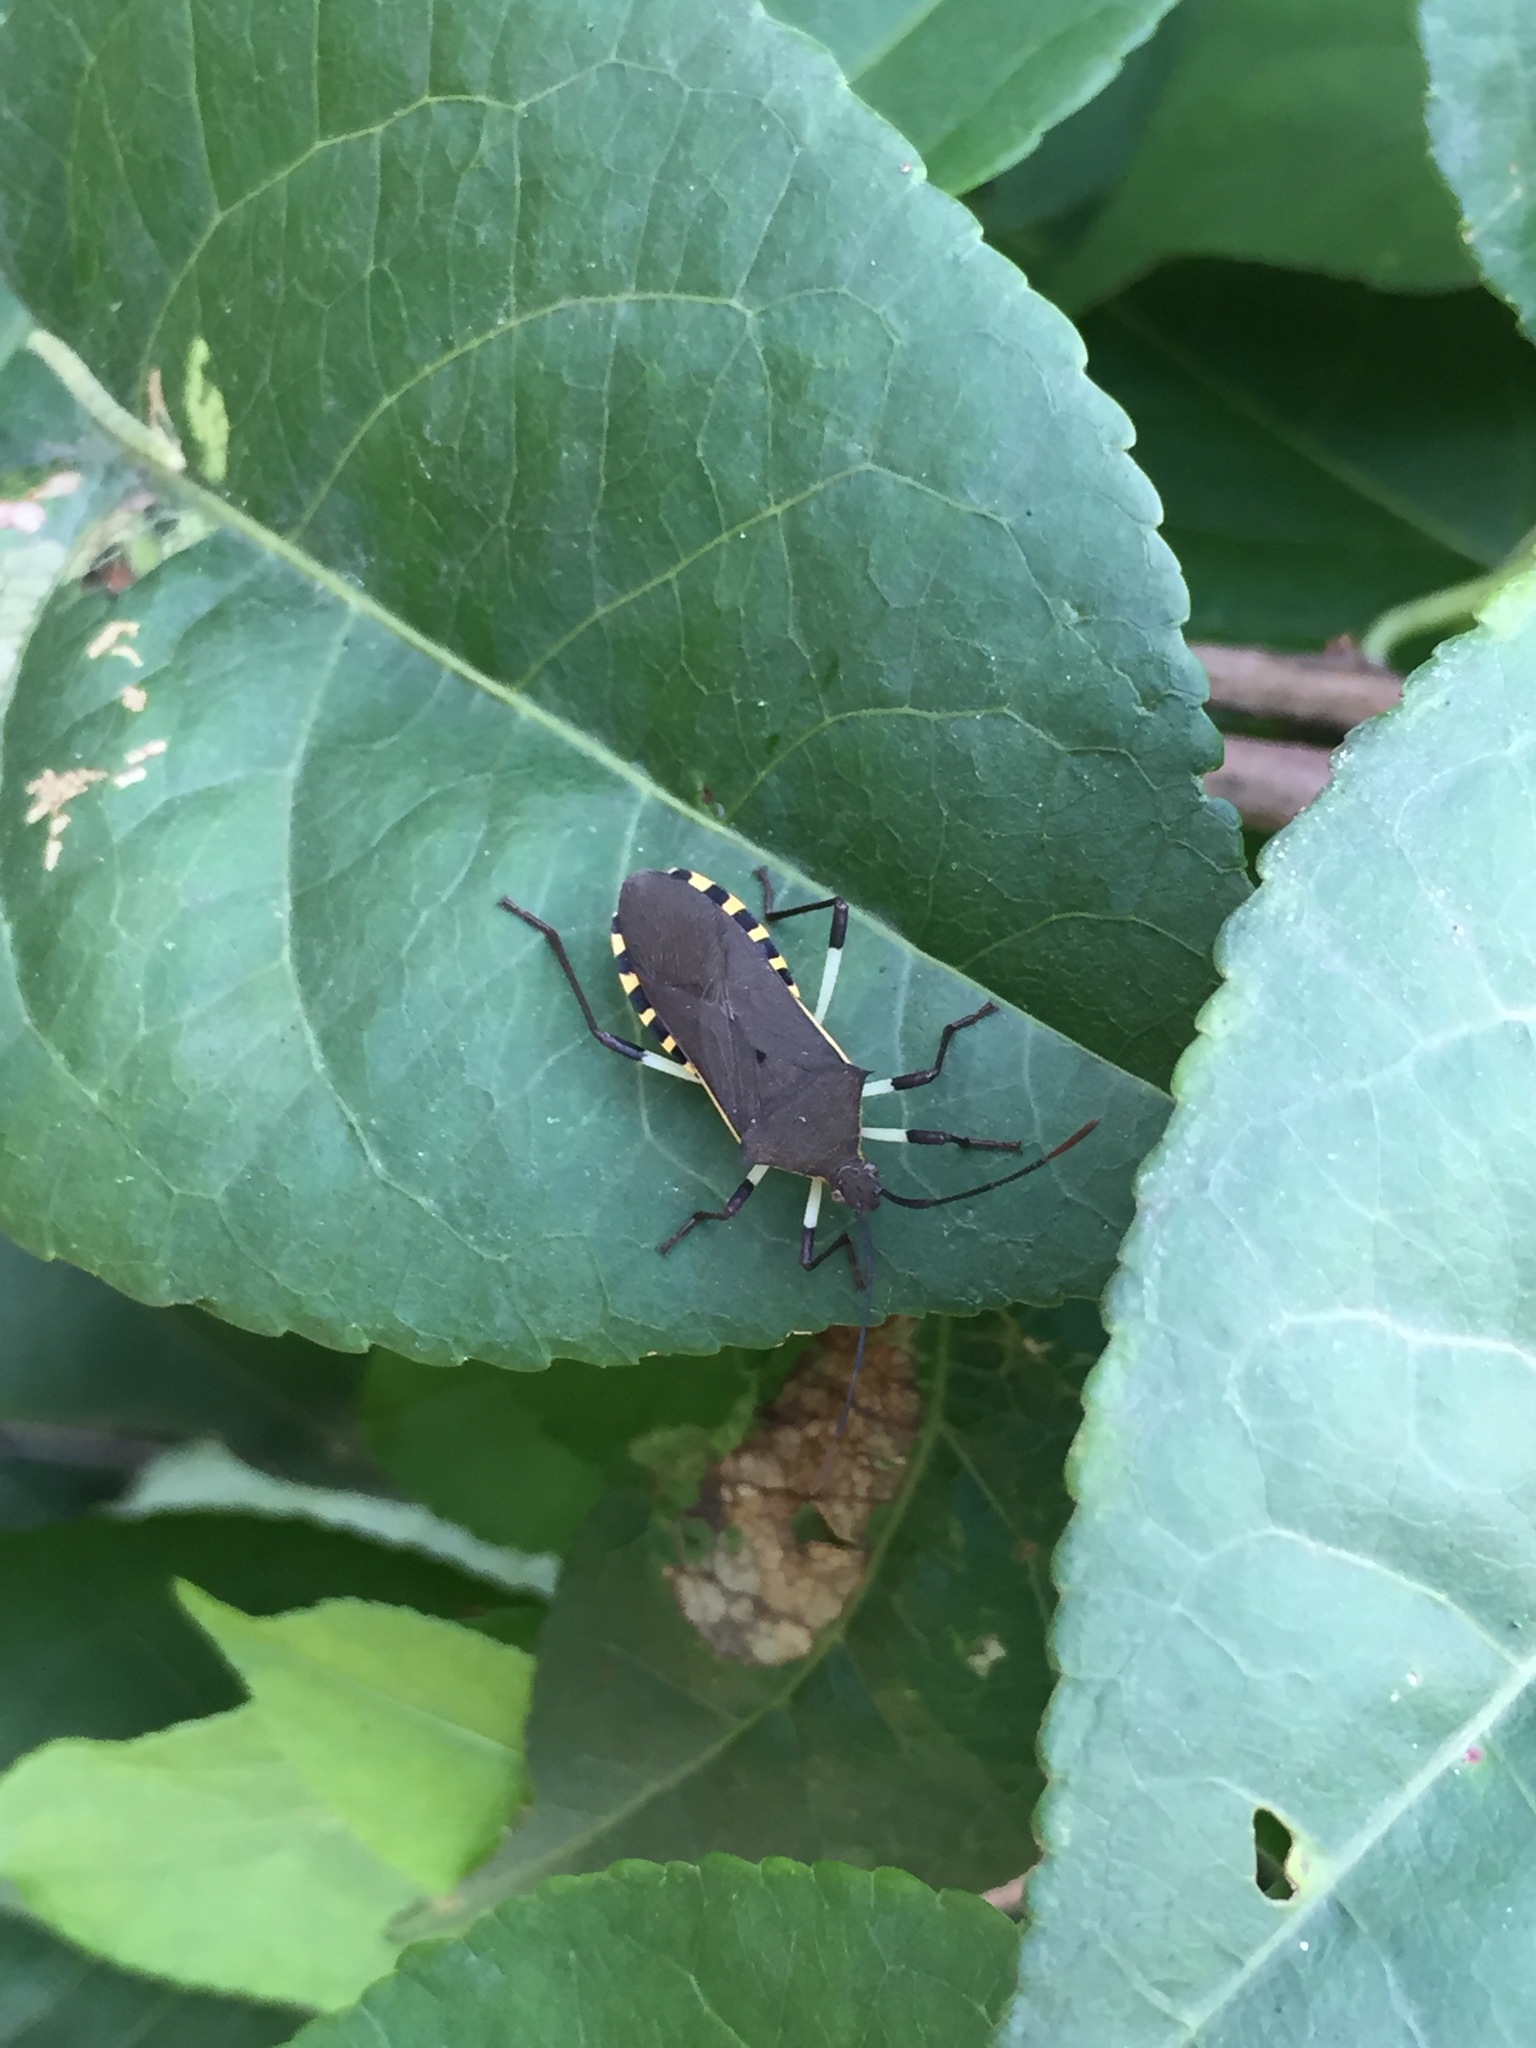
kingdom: Animalia
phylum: Arthropoda
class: Insecta
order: Hemiptera
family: Coreidae
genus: Plinachtus
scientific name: Plinachtus bicoloripes
